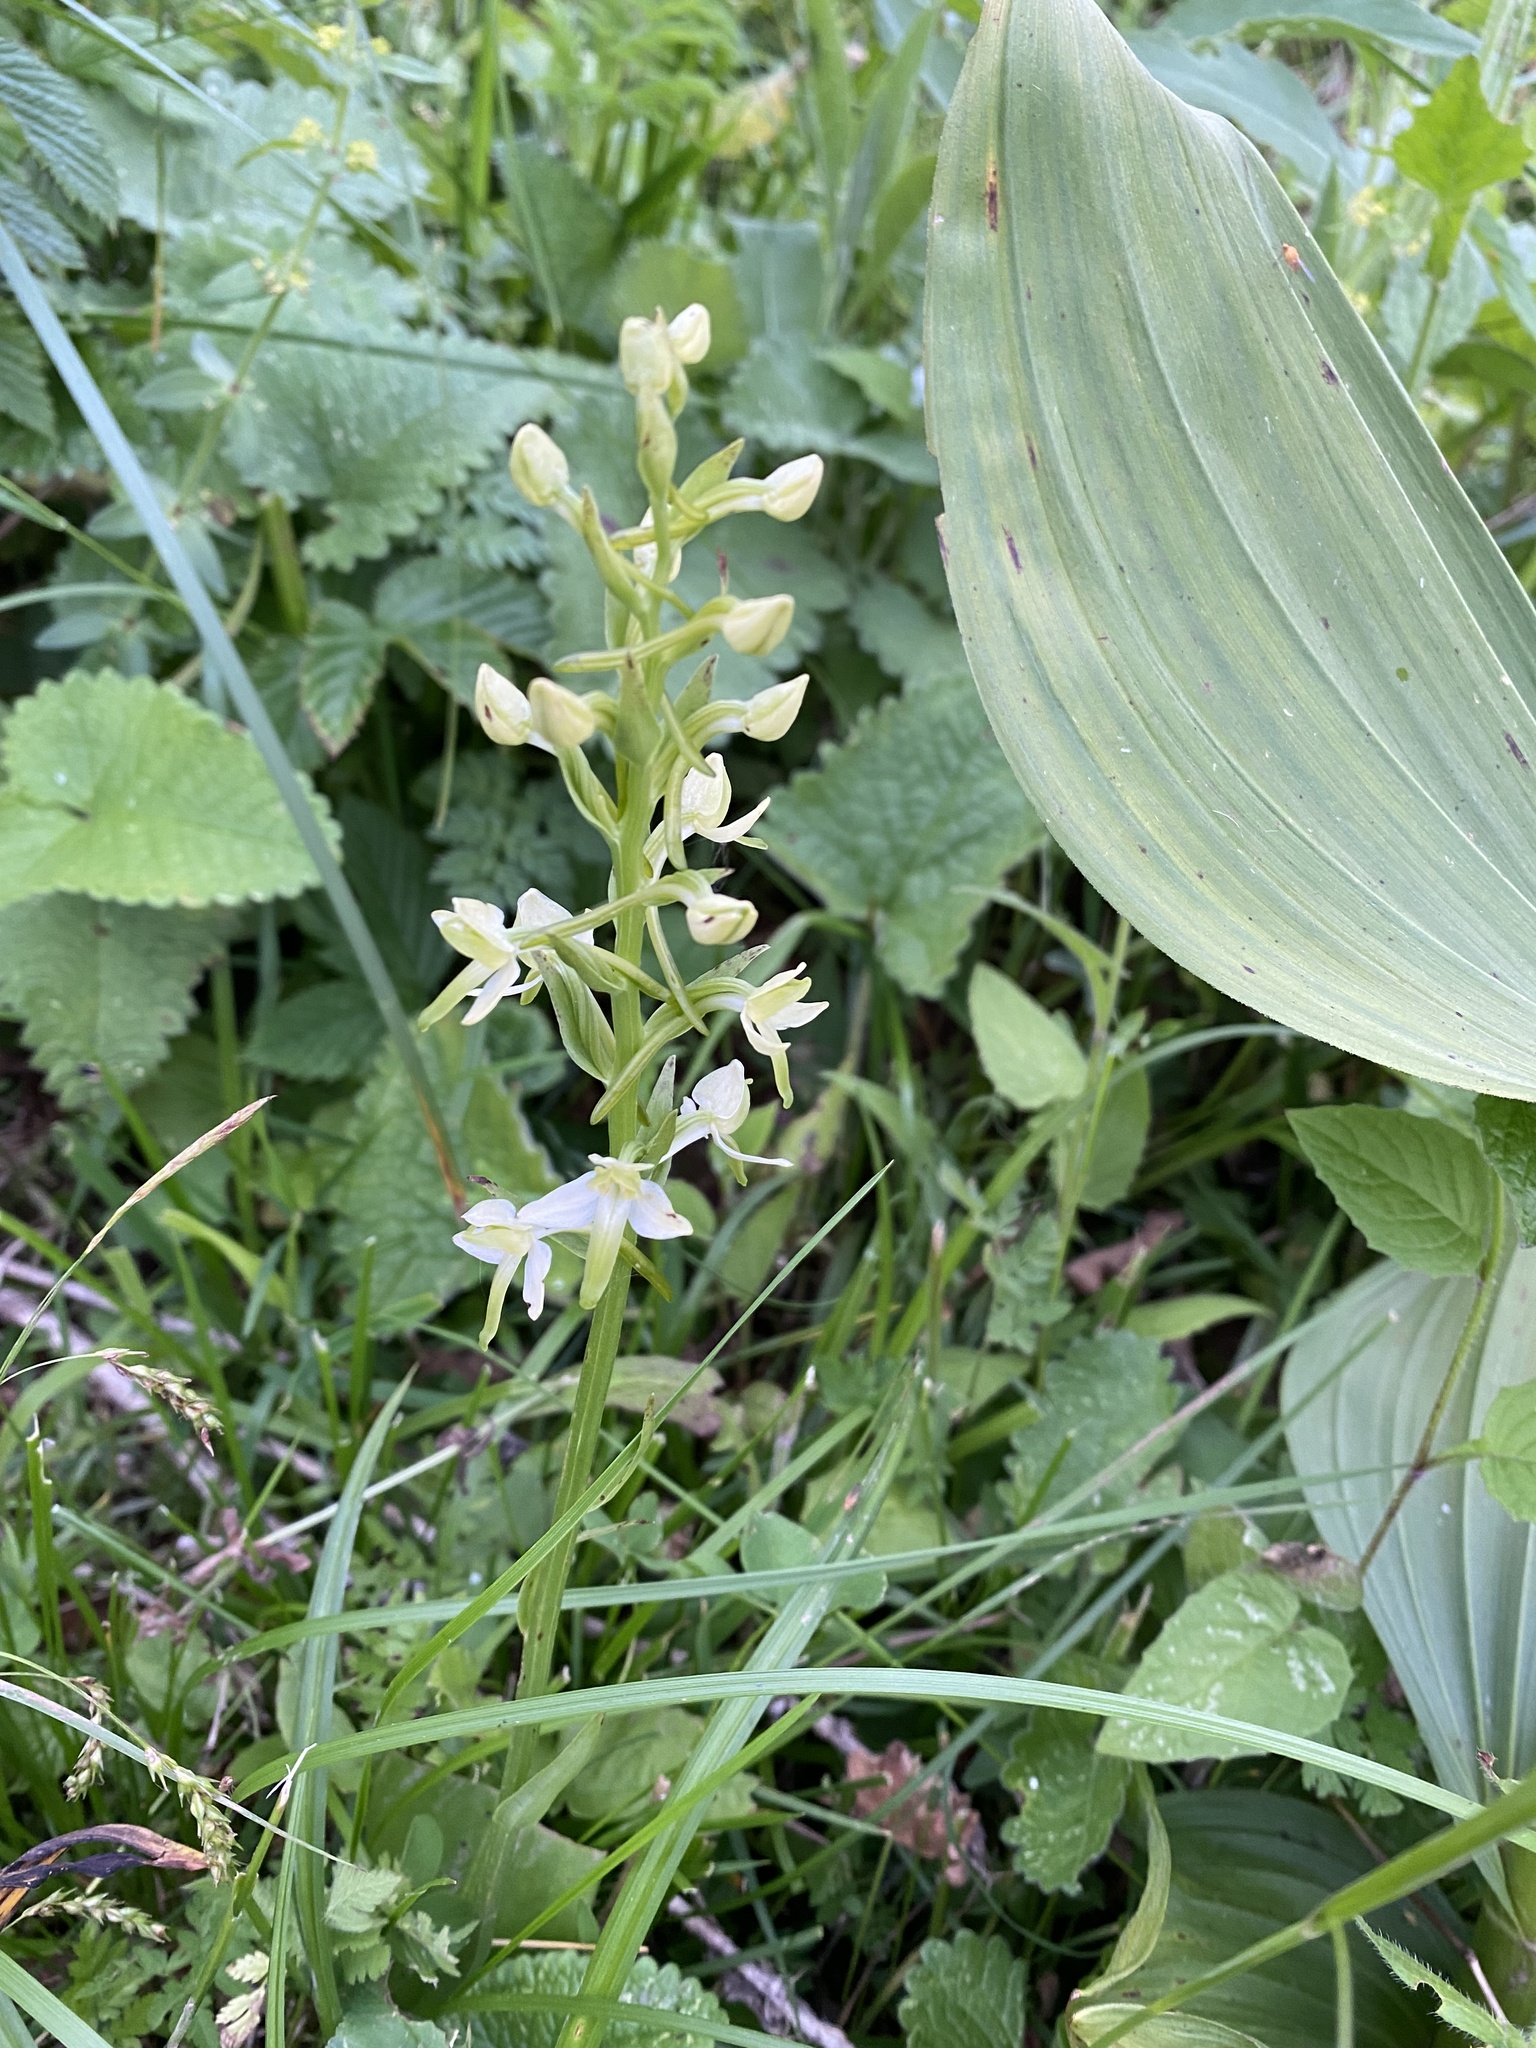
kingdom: Plantae
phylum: Tracheophyta
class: Liliopsida
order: Asparagales
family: Orchidaceae
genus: Platanthera
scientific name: Platanthera chlorantha
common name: Greater butterfly-orchid
